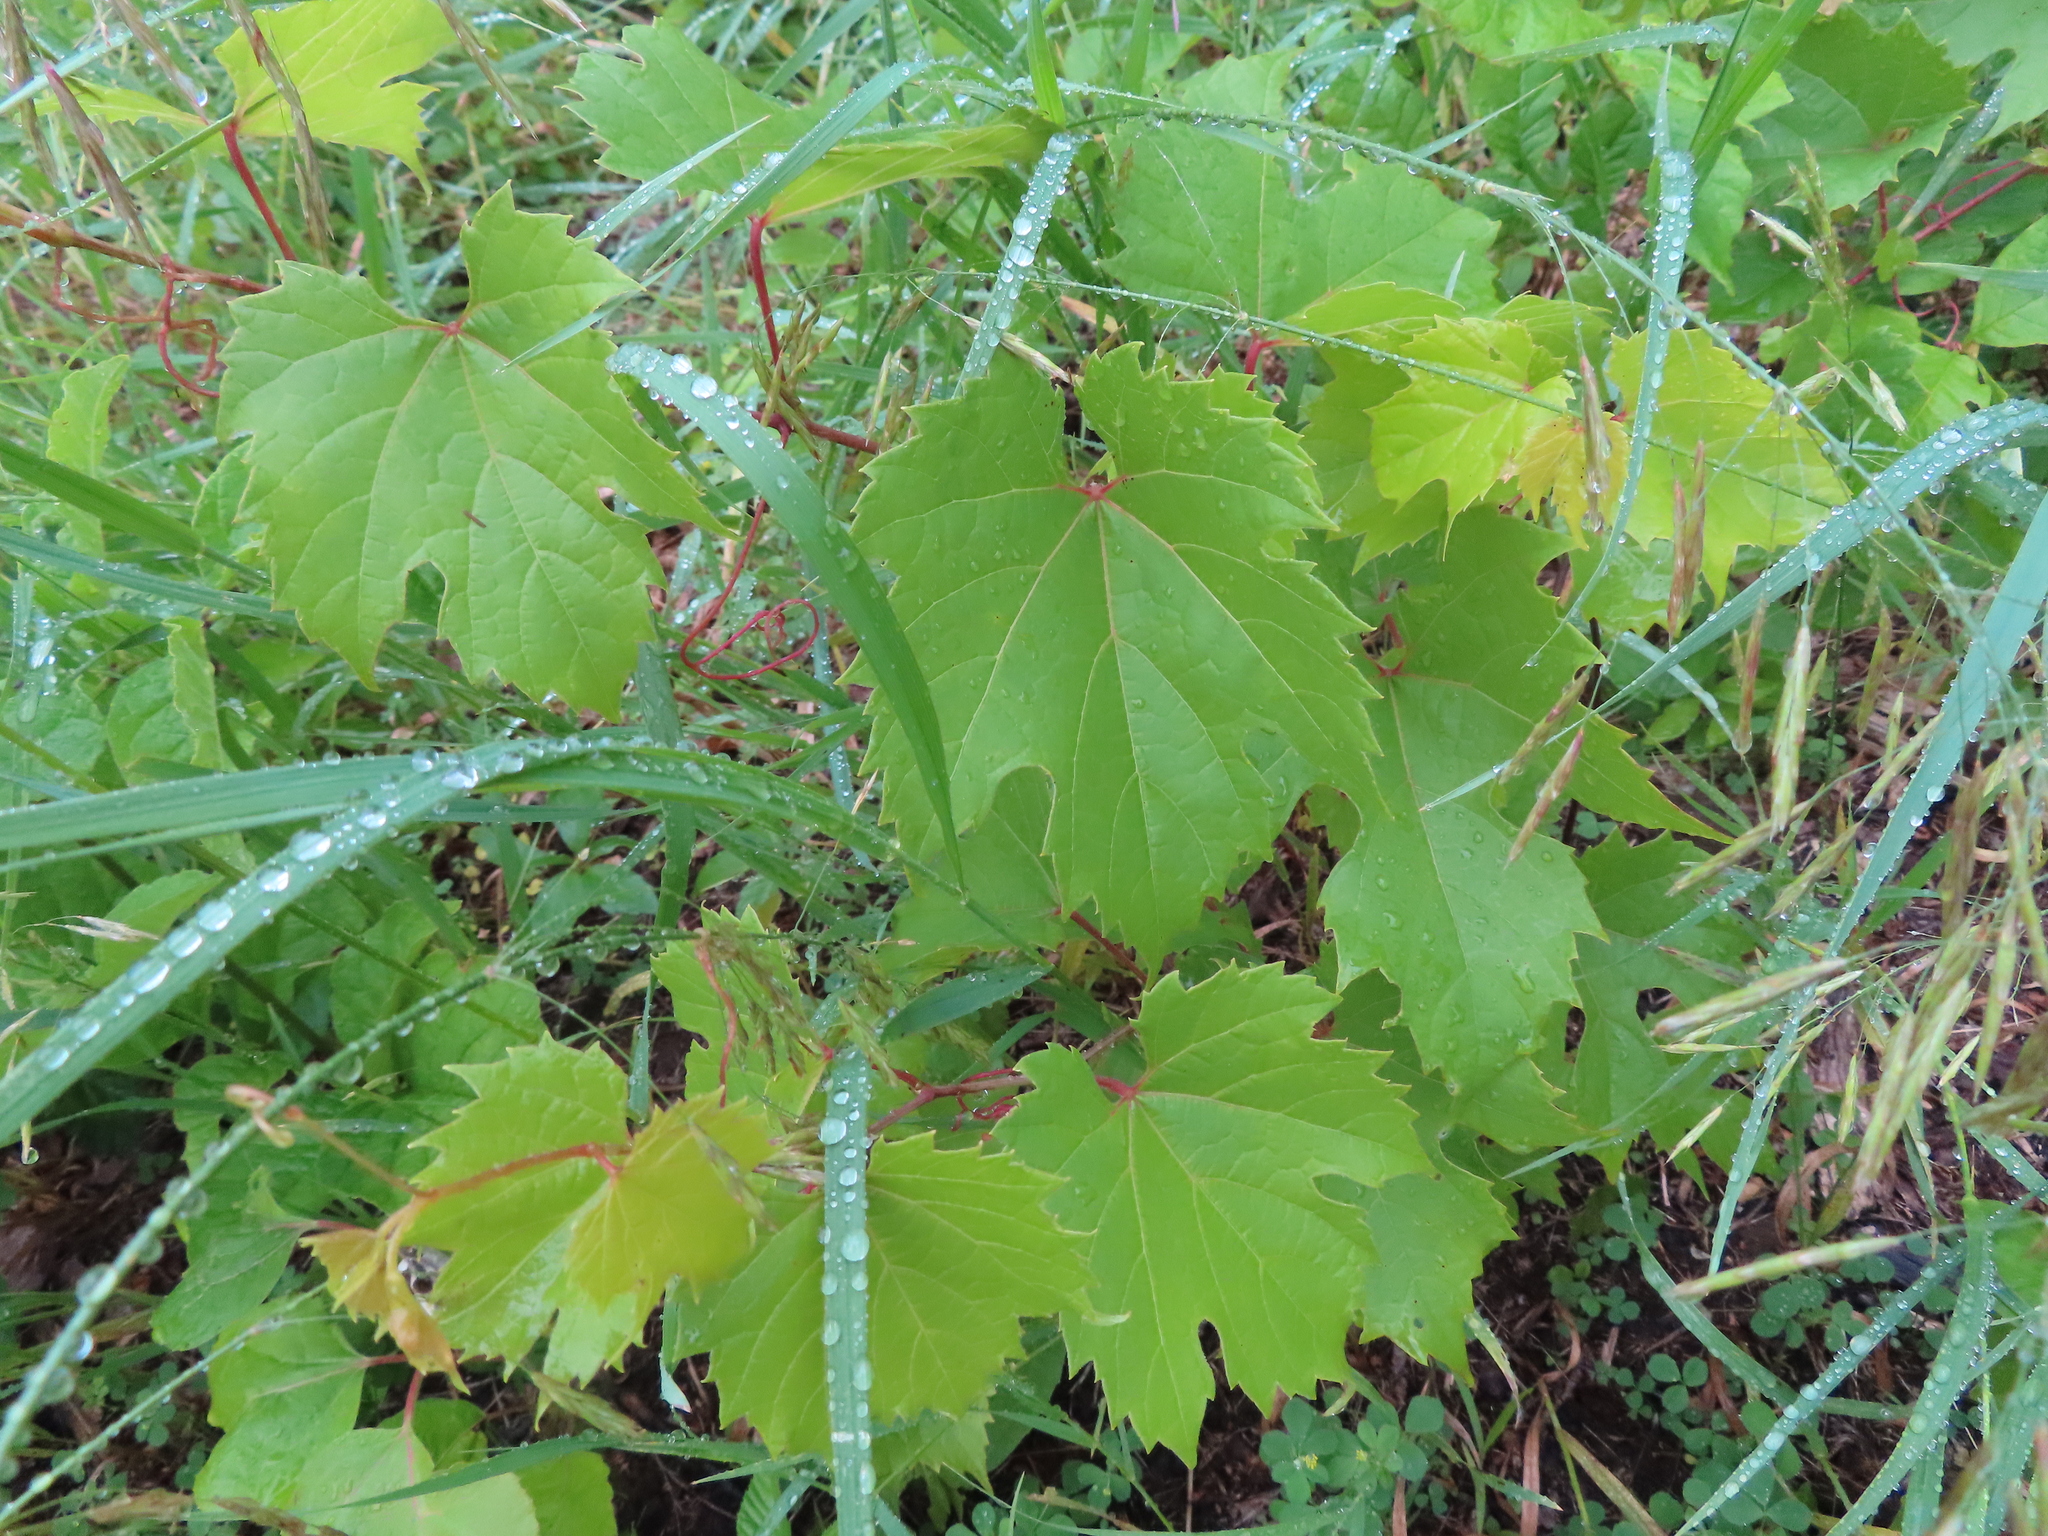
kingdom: Plantae
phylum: Tracheophyta
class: Magnoliopsida
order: Vitales
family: Vitaceae
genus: Vitis
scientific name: Vitis riparia
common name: Frost grape
